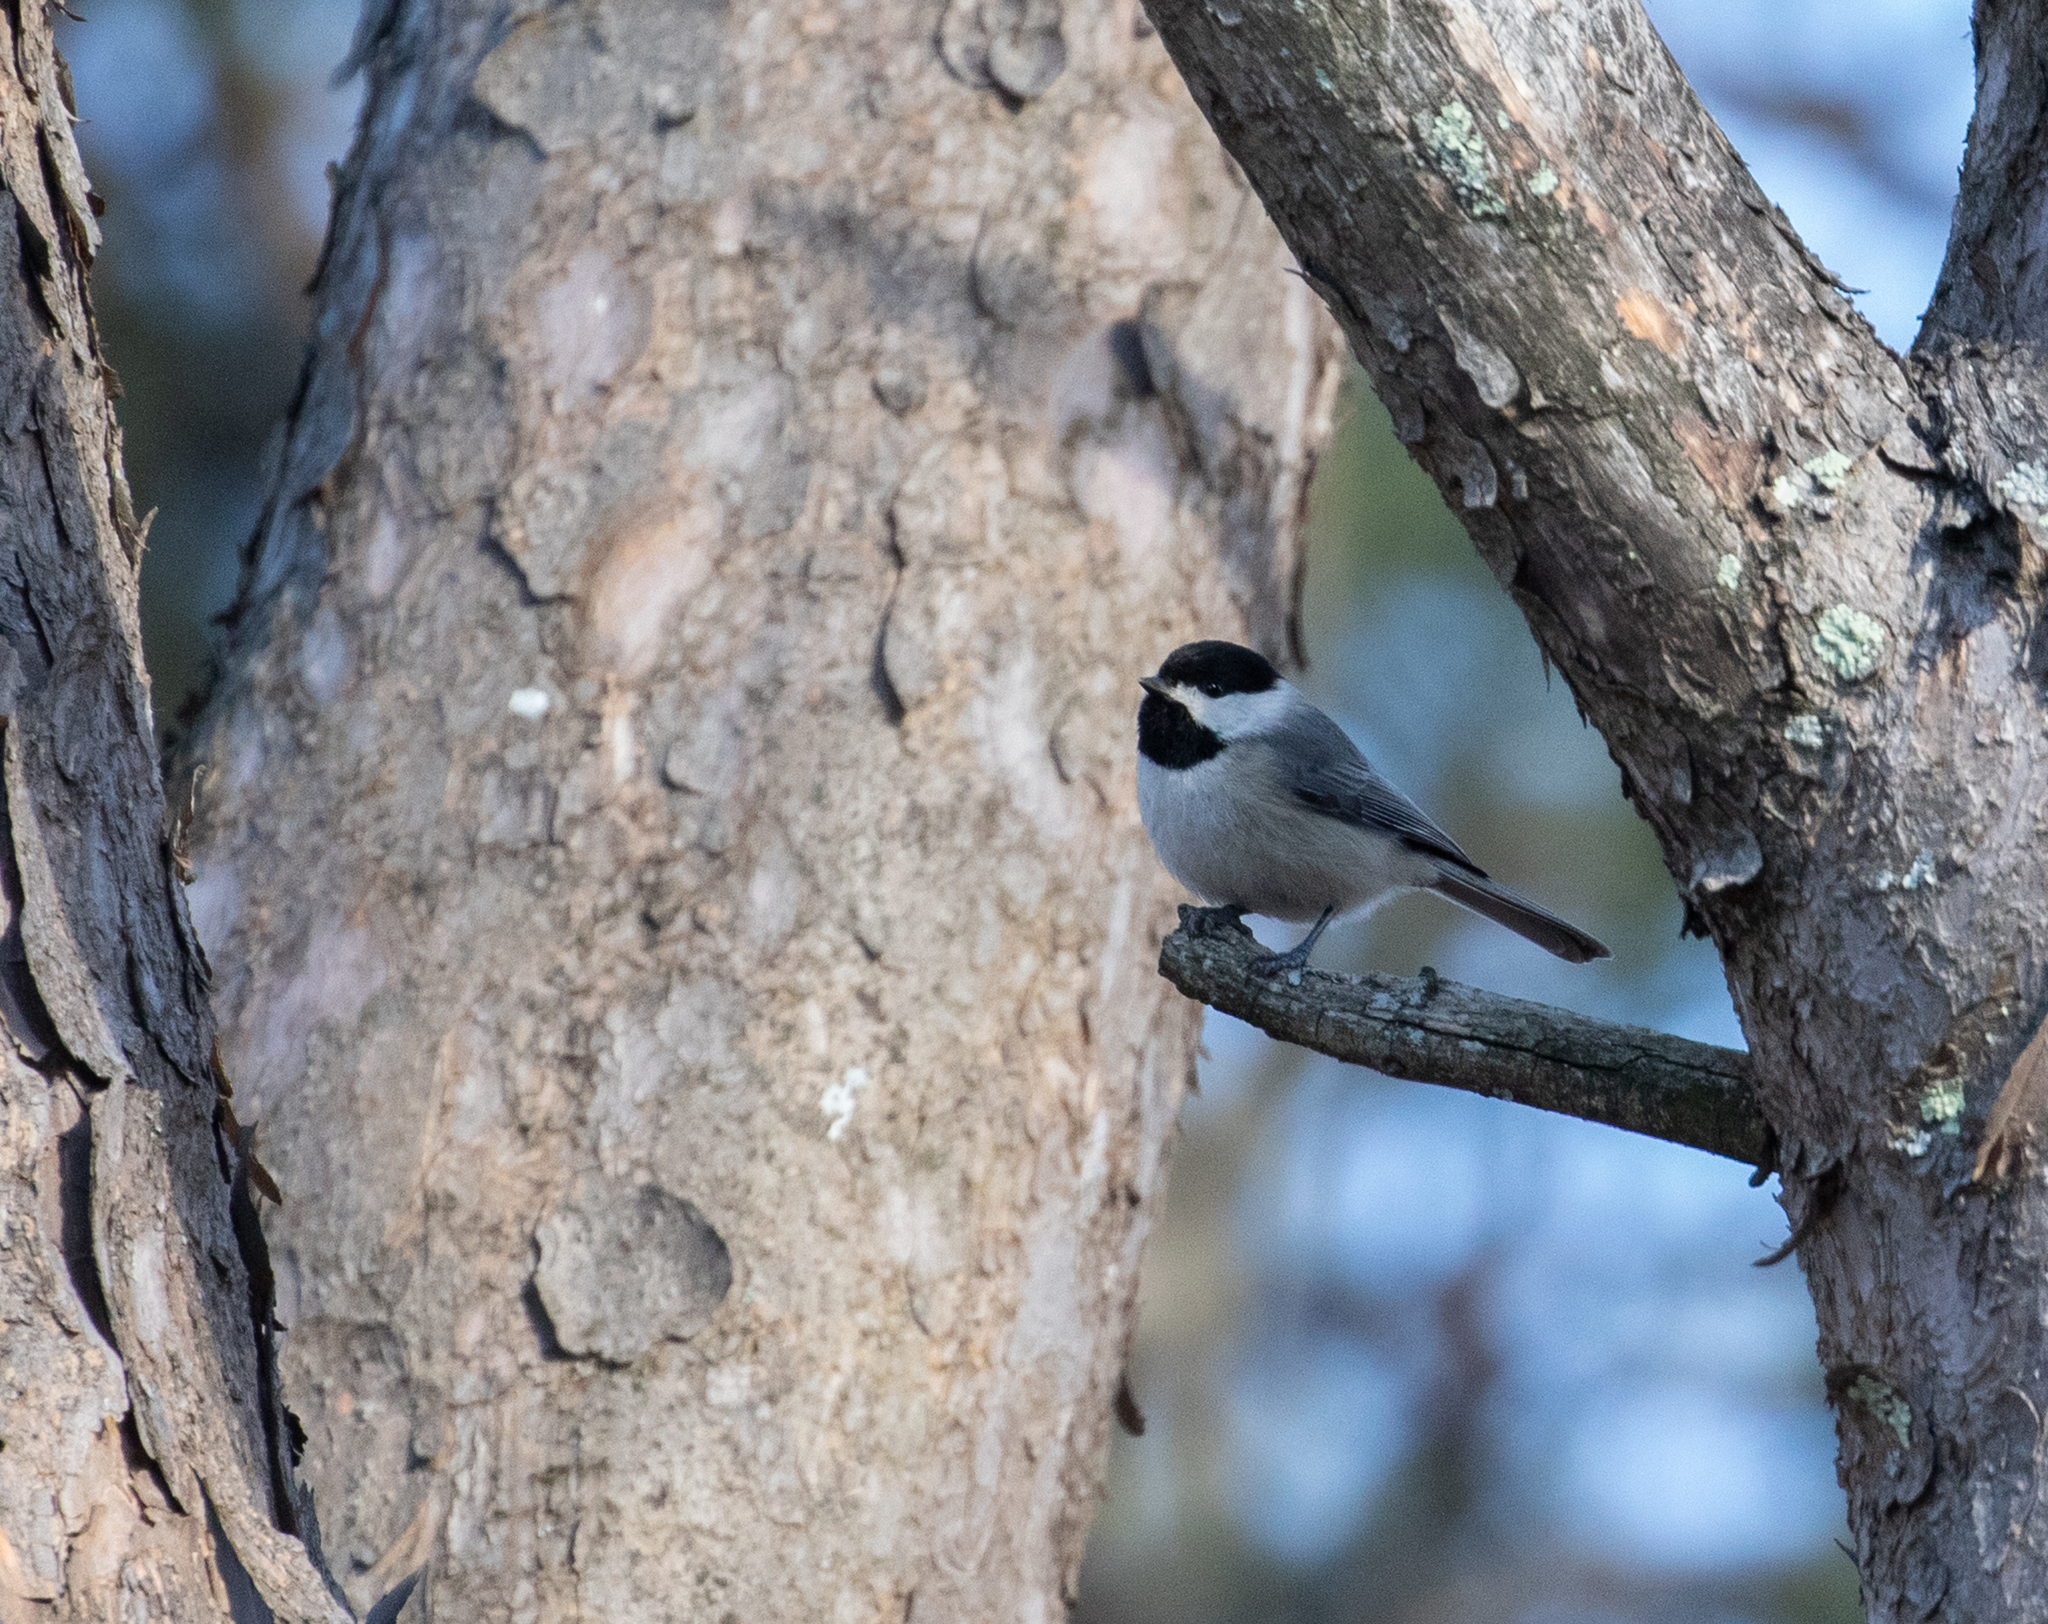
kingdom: Animalia
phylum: Chordata
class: Aves
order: Passeriformes
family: Paridae
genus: Poecile
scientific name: Poecile carolinensis
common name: Carolina chickadee
